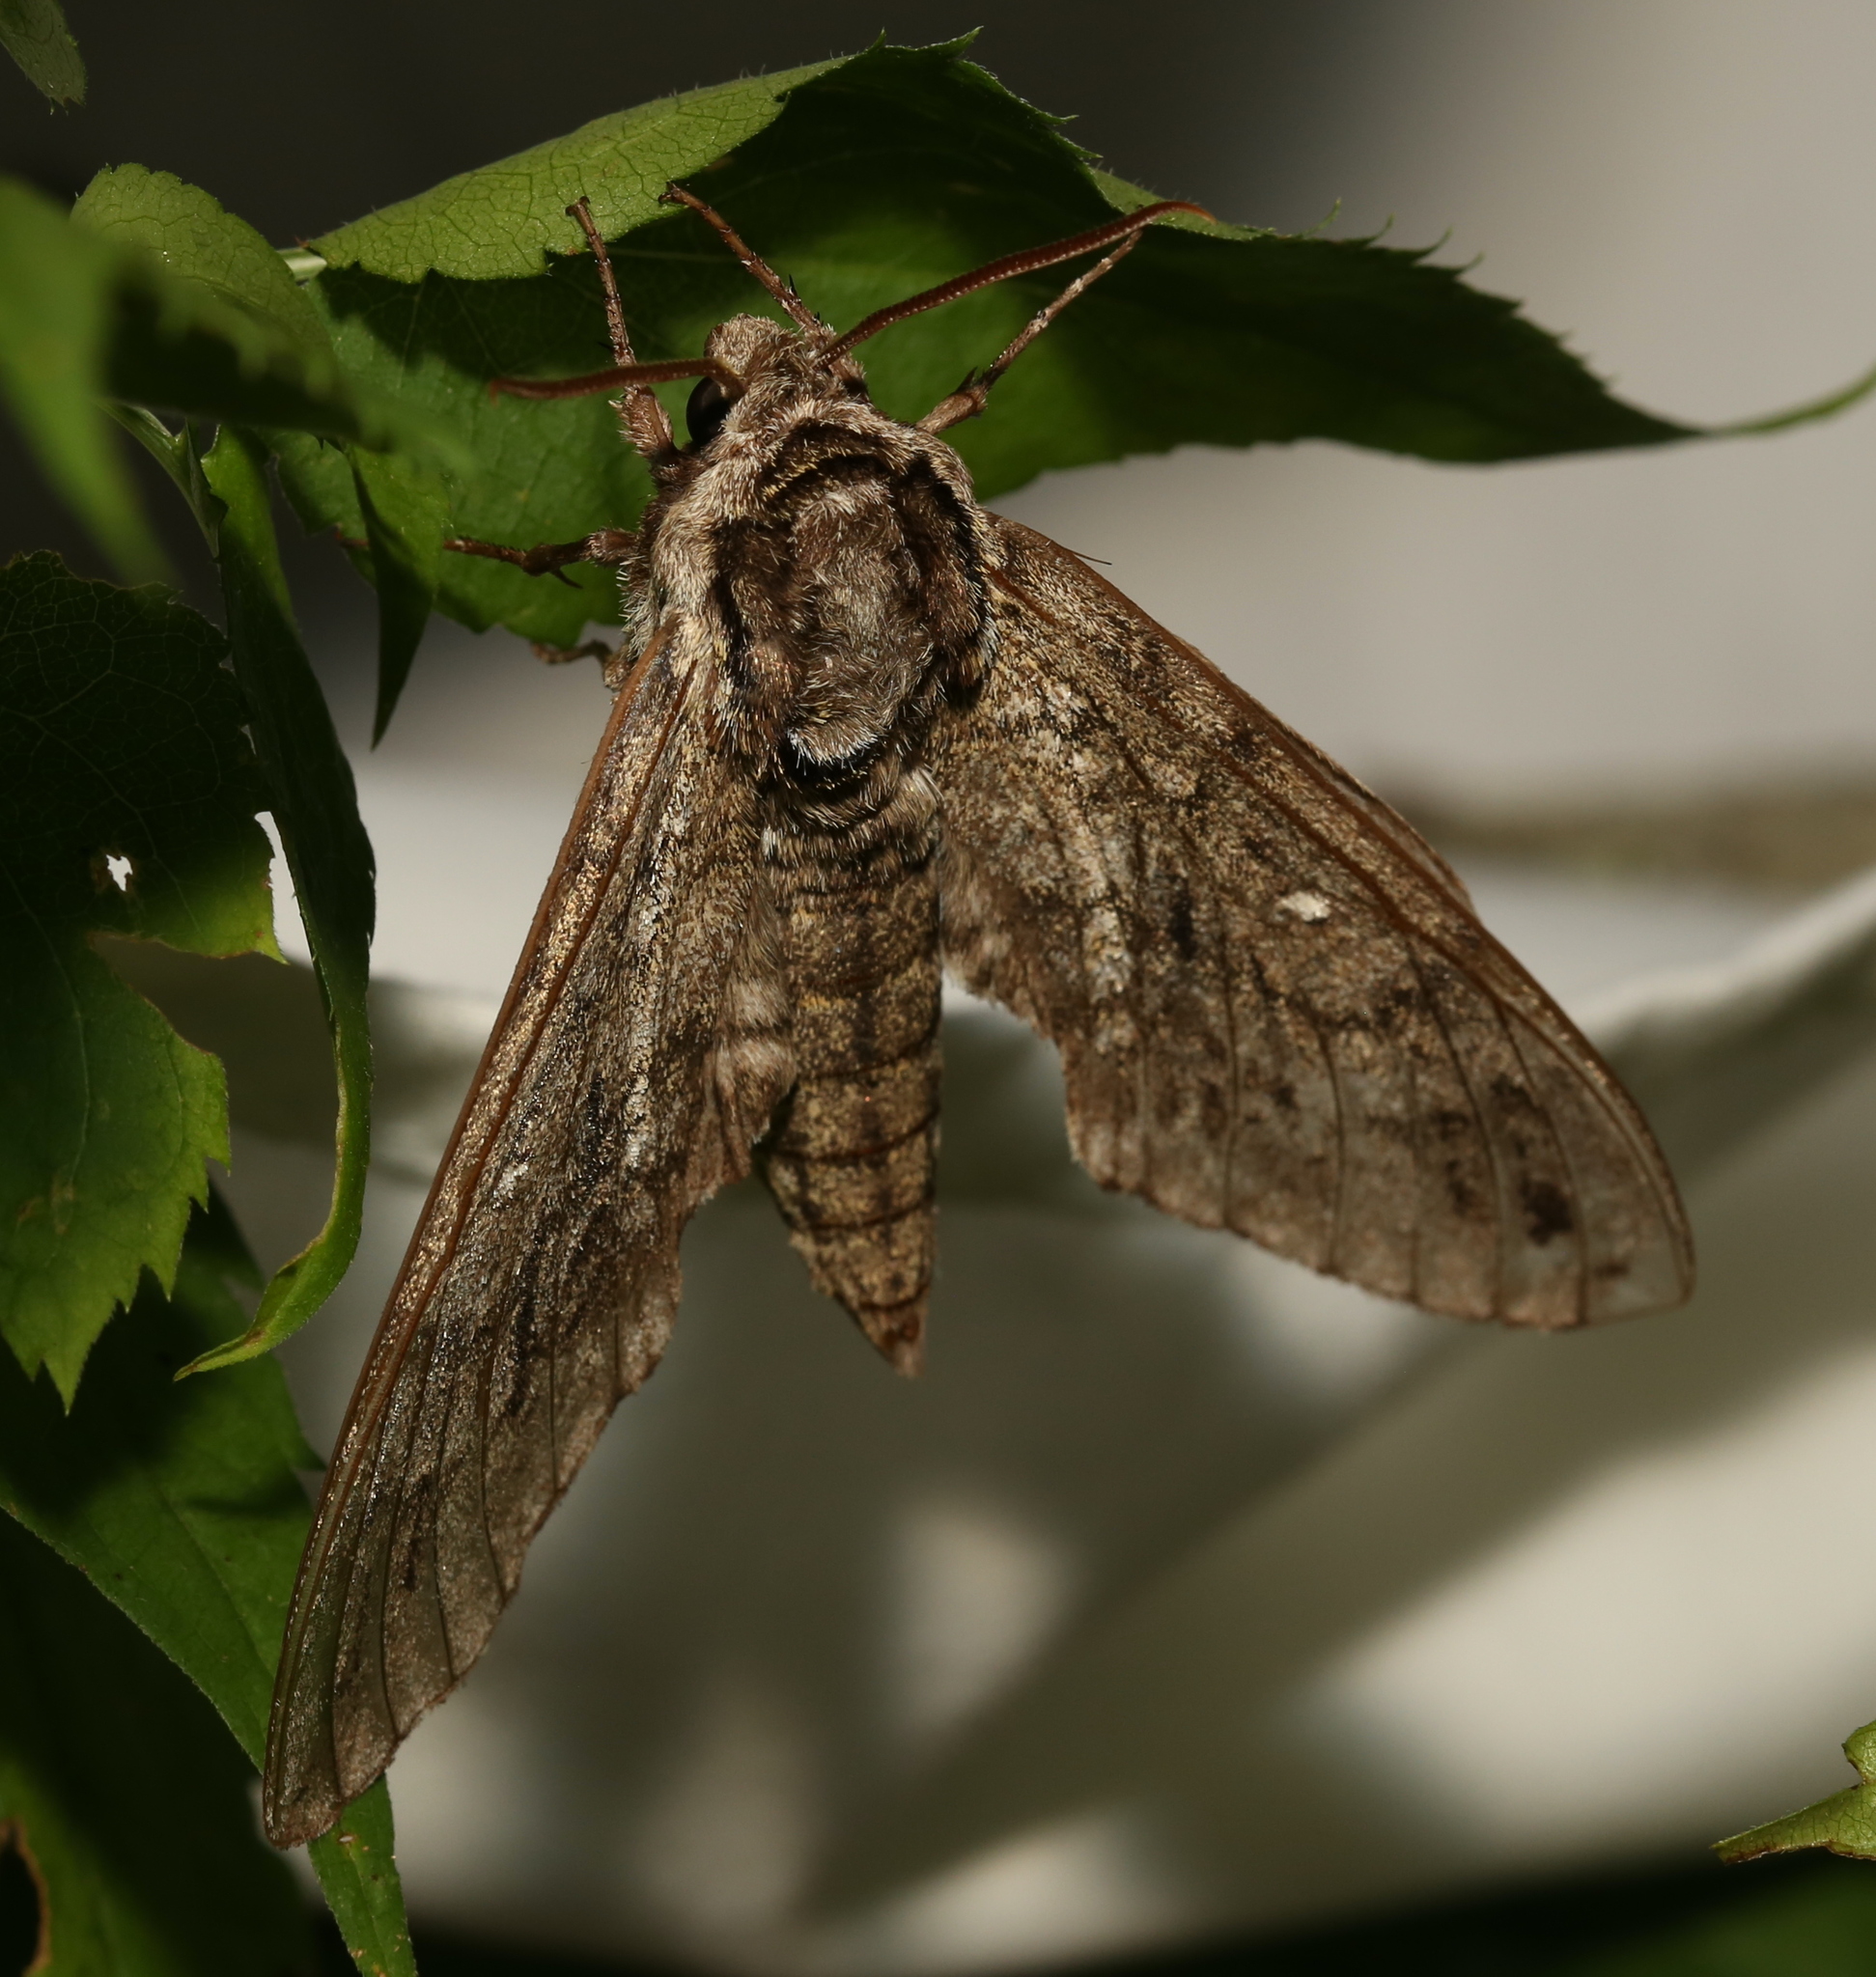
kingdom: Animalia
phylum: Arthropoda
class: Insecta
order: Lepidoptera
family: Sphingidae
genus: Ceratomia
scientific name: Ceratomia undulosa
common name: Waved sphinx
